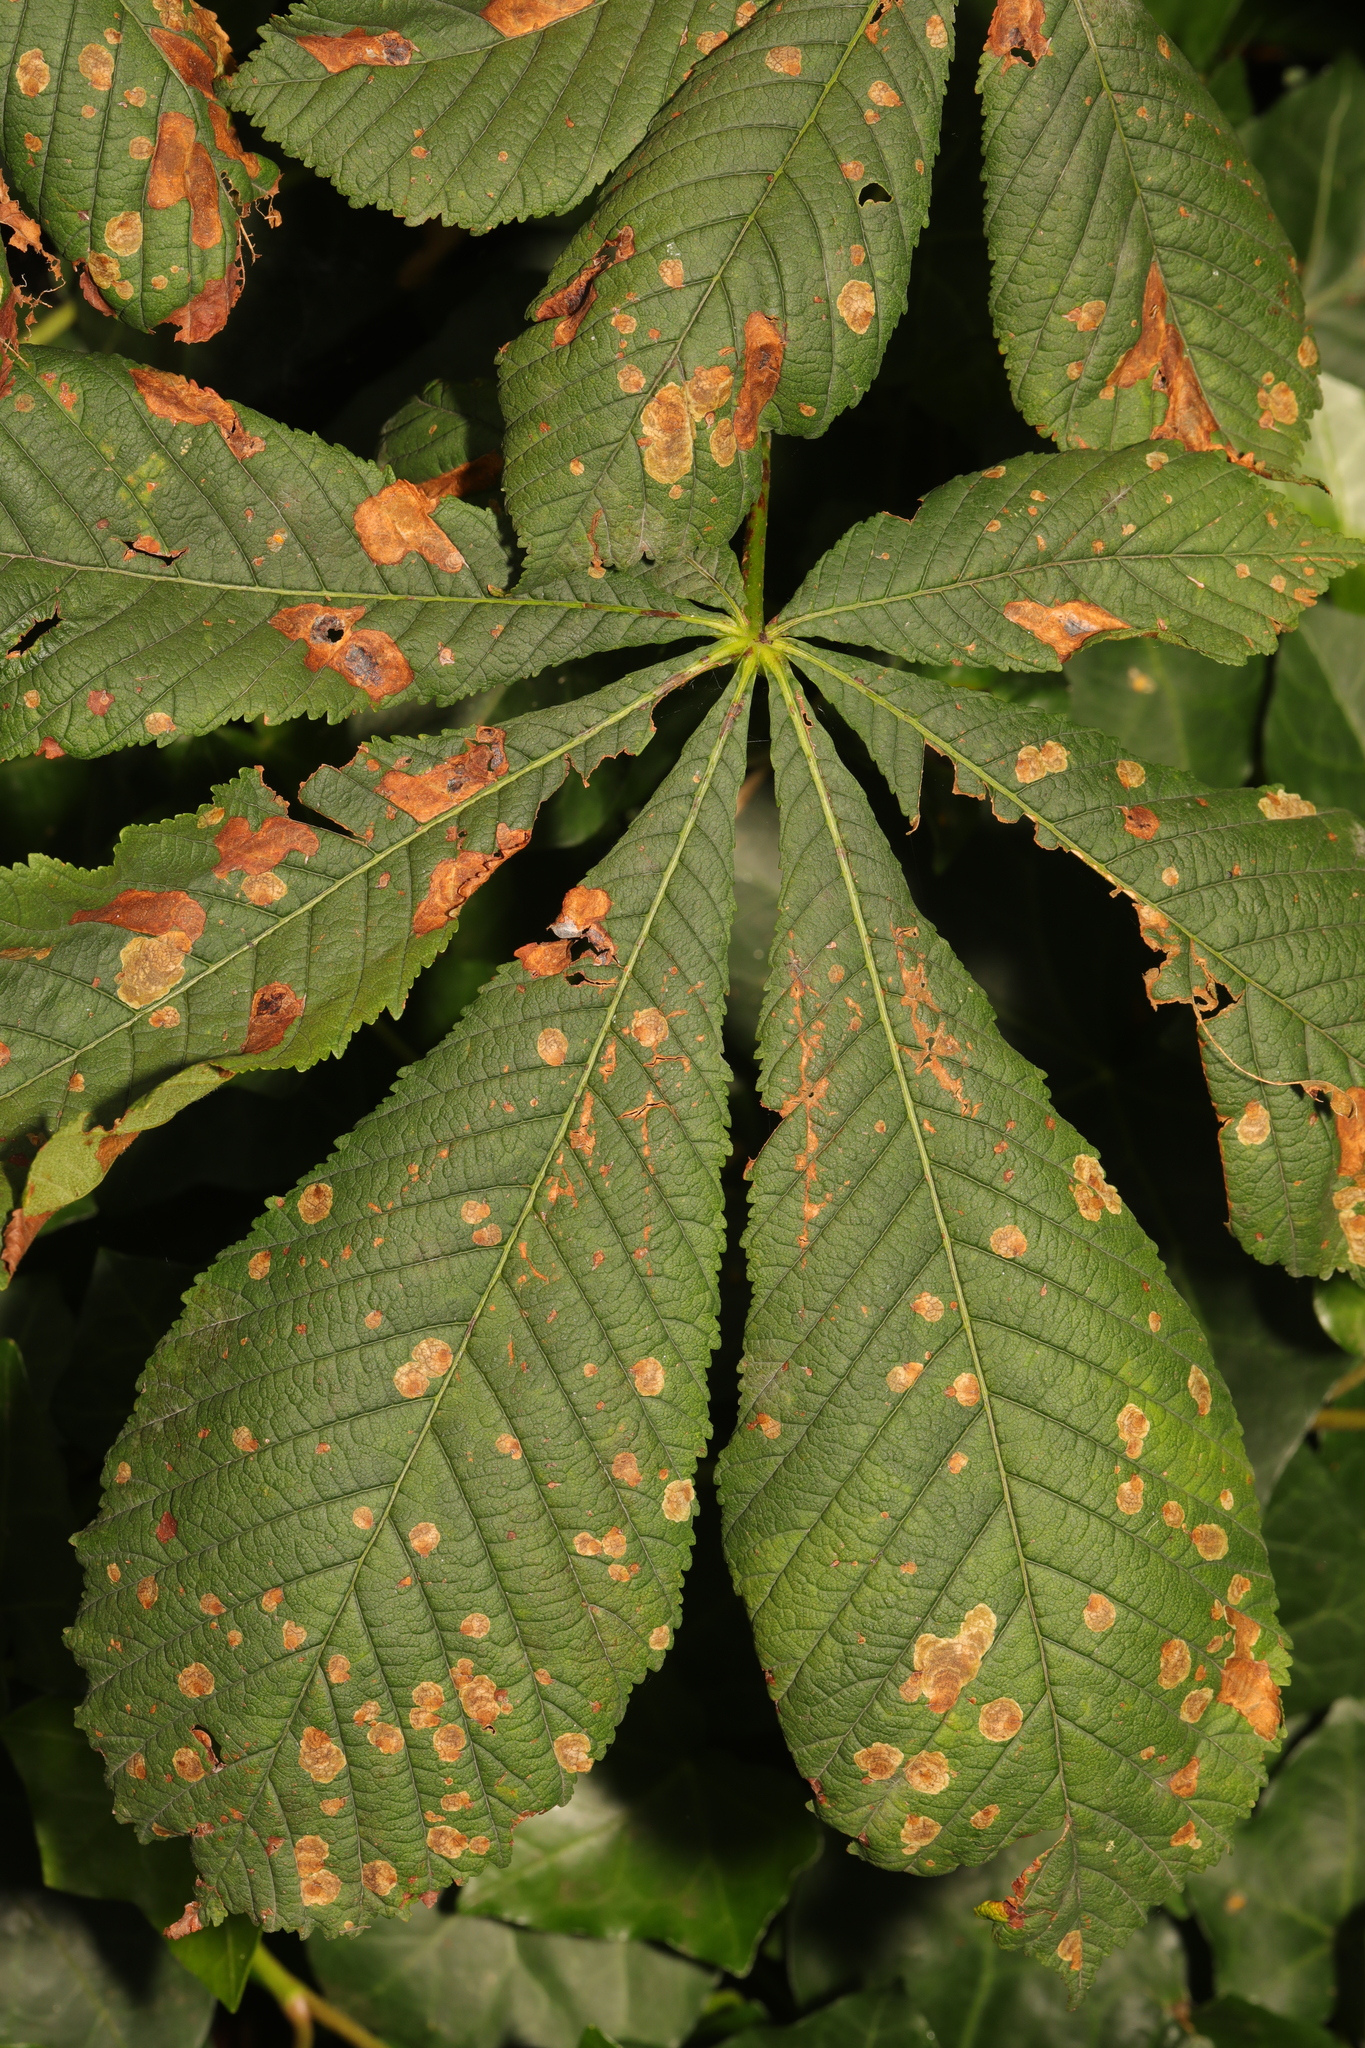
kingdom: Plantae
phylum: Tracheophyta
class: Magnoliopsida
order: Sapindales
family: Sapindaceae
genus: Aesculus
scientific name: Aesculus hippocastanum
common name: Horse-chestnut
